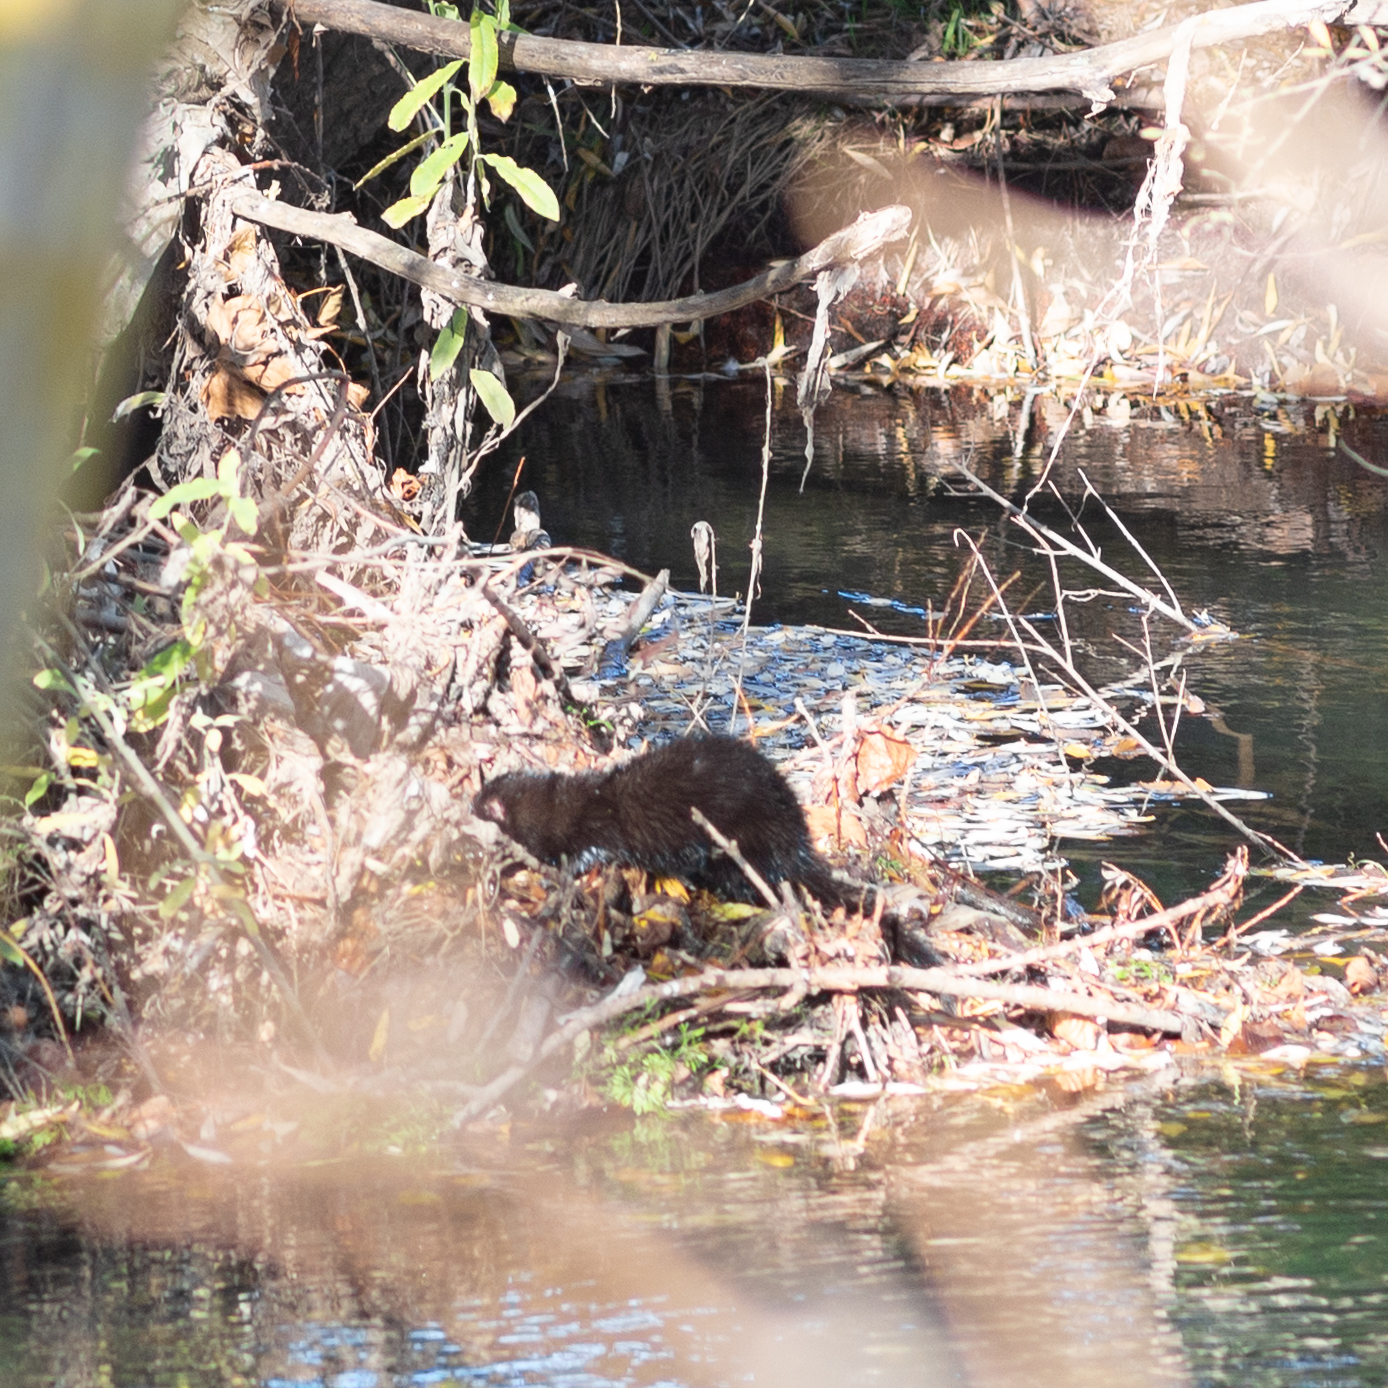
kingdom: Animalia
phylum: Chordata
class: Mammalia
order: Carnivora
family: Mustelidae
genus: Mustela
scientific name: Mustela
